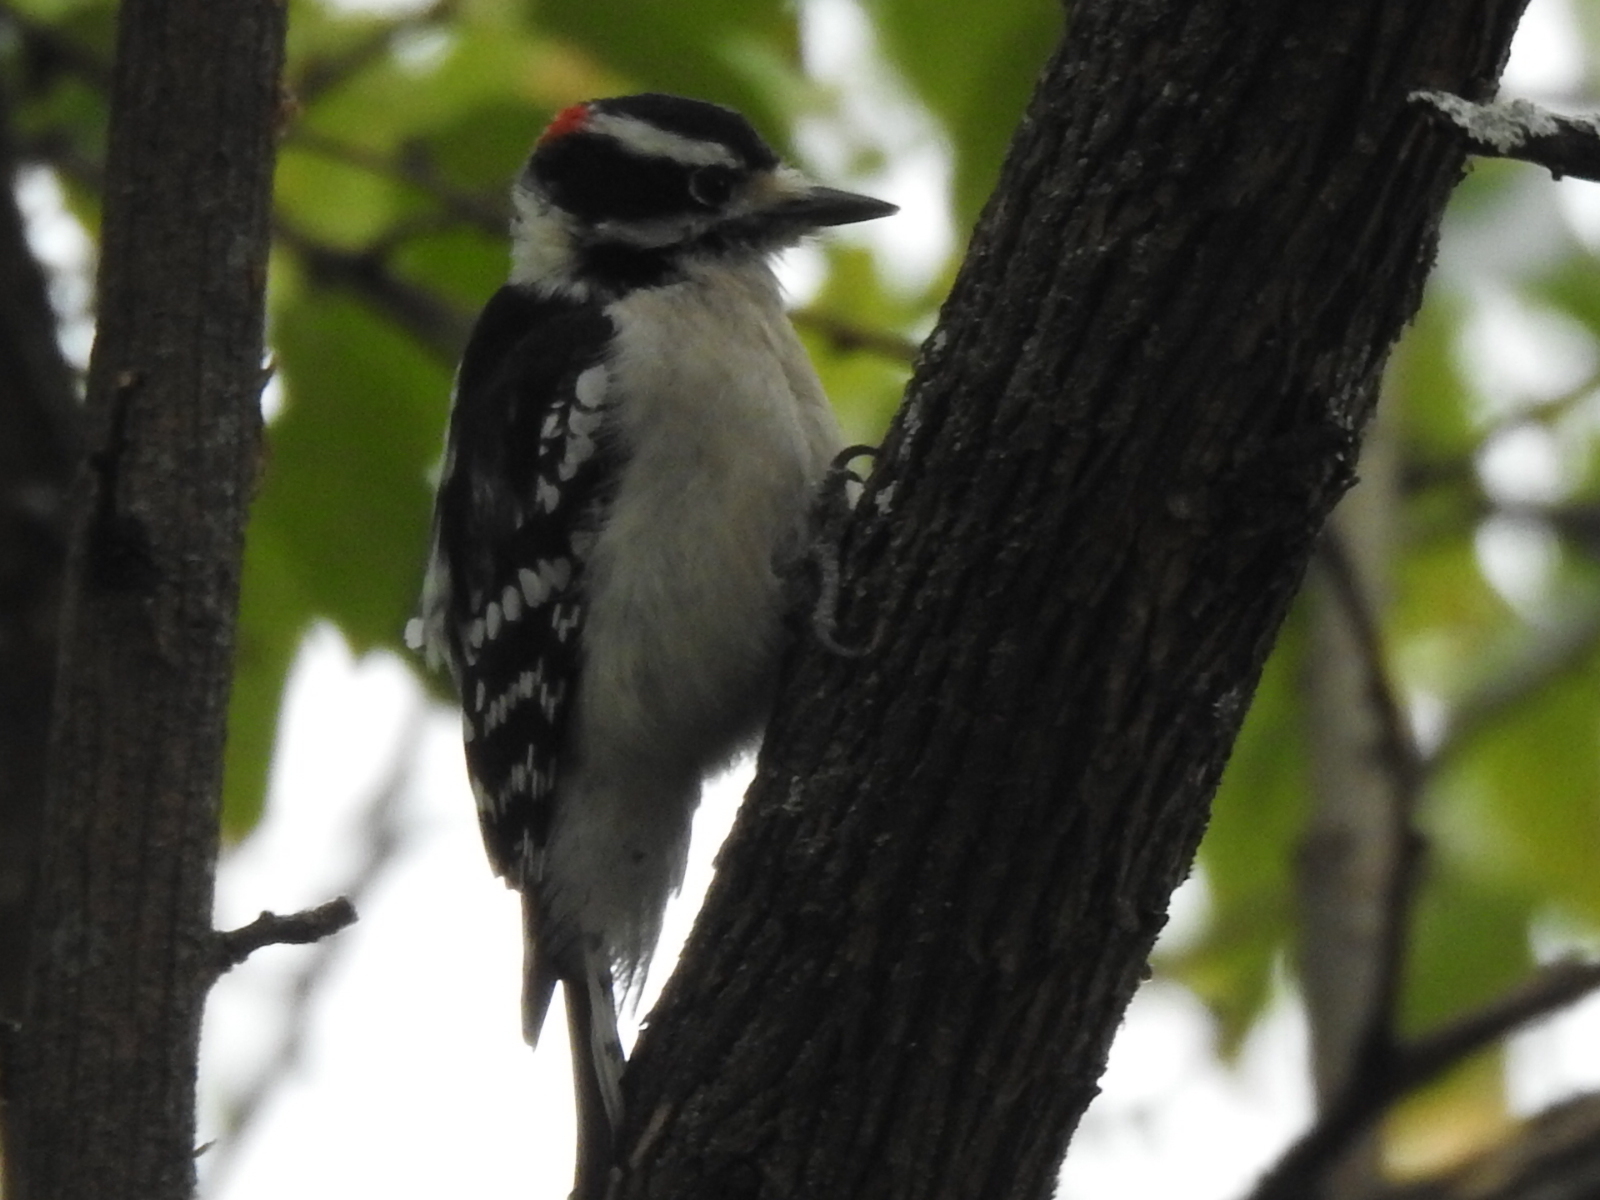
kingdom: Animalia
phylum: Chordata
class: Aves
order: Piciformes
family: Picidae
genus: Dryobates
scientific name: Dryobates pubescens
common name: Downy woodpecker
